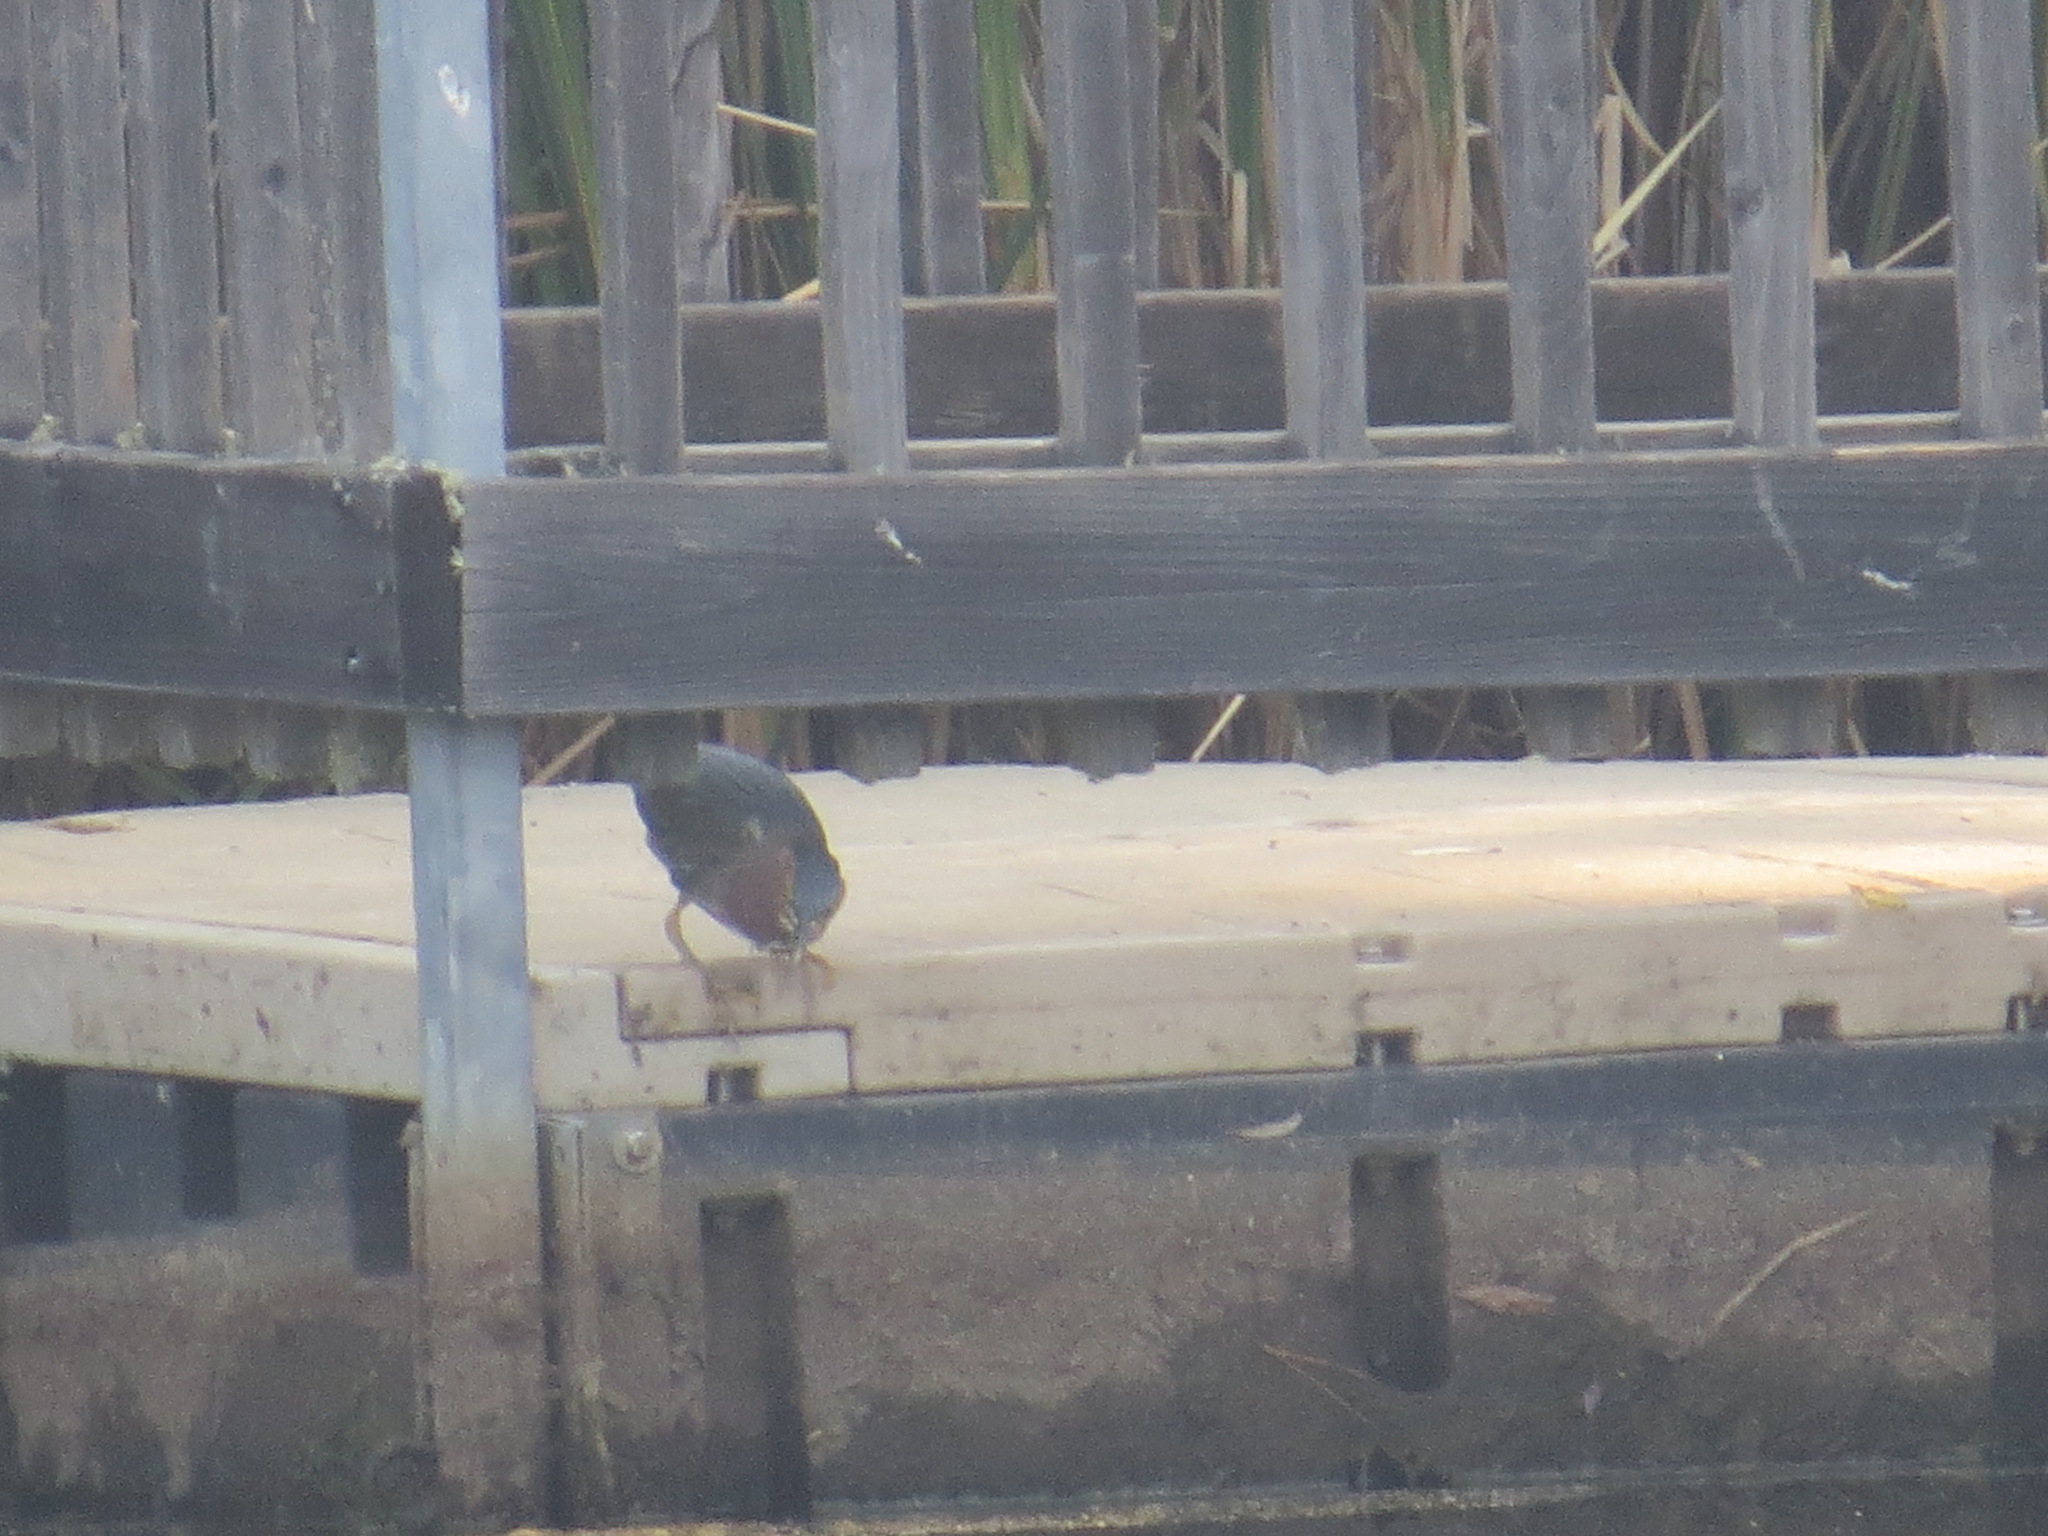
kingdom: Animalia
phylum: Chordata
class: Aves
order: Pelecaniformes
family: Ardeidae
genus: Butorides
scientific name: Butorides virescens
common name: Green heron
